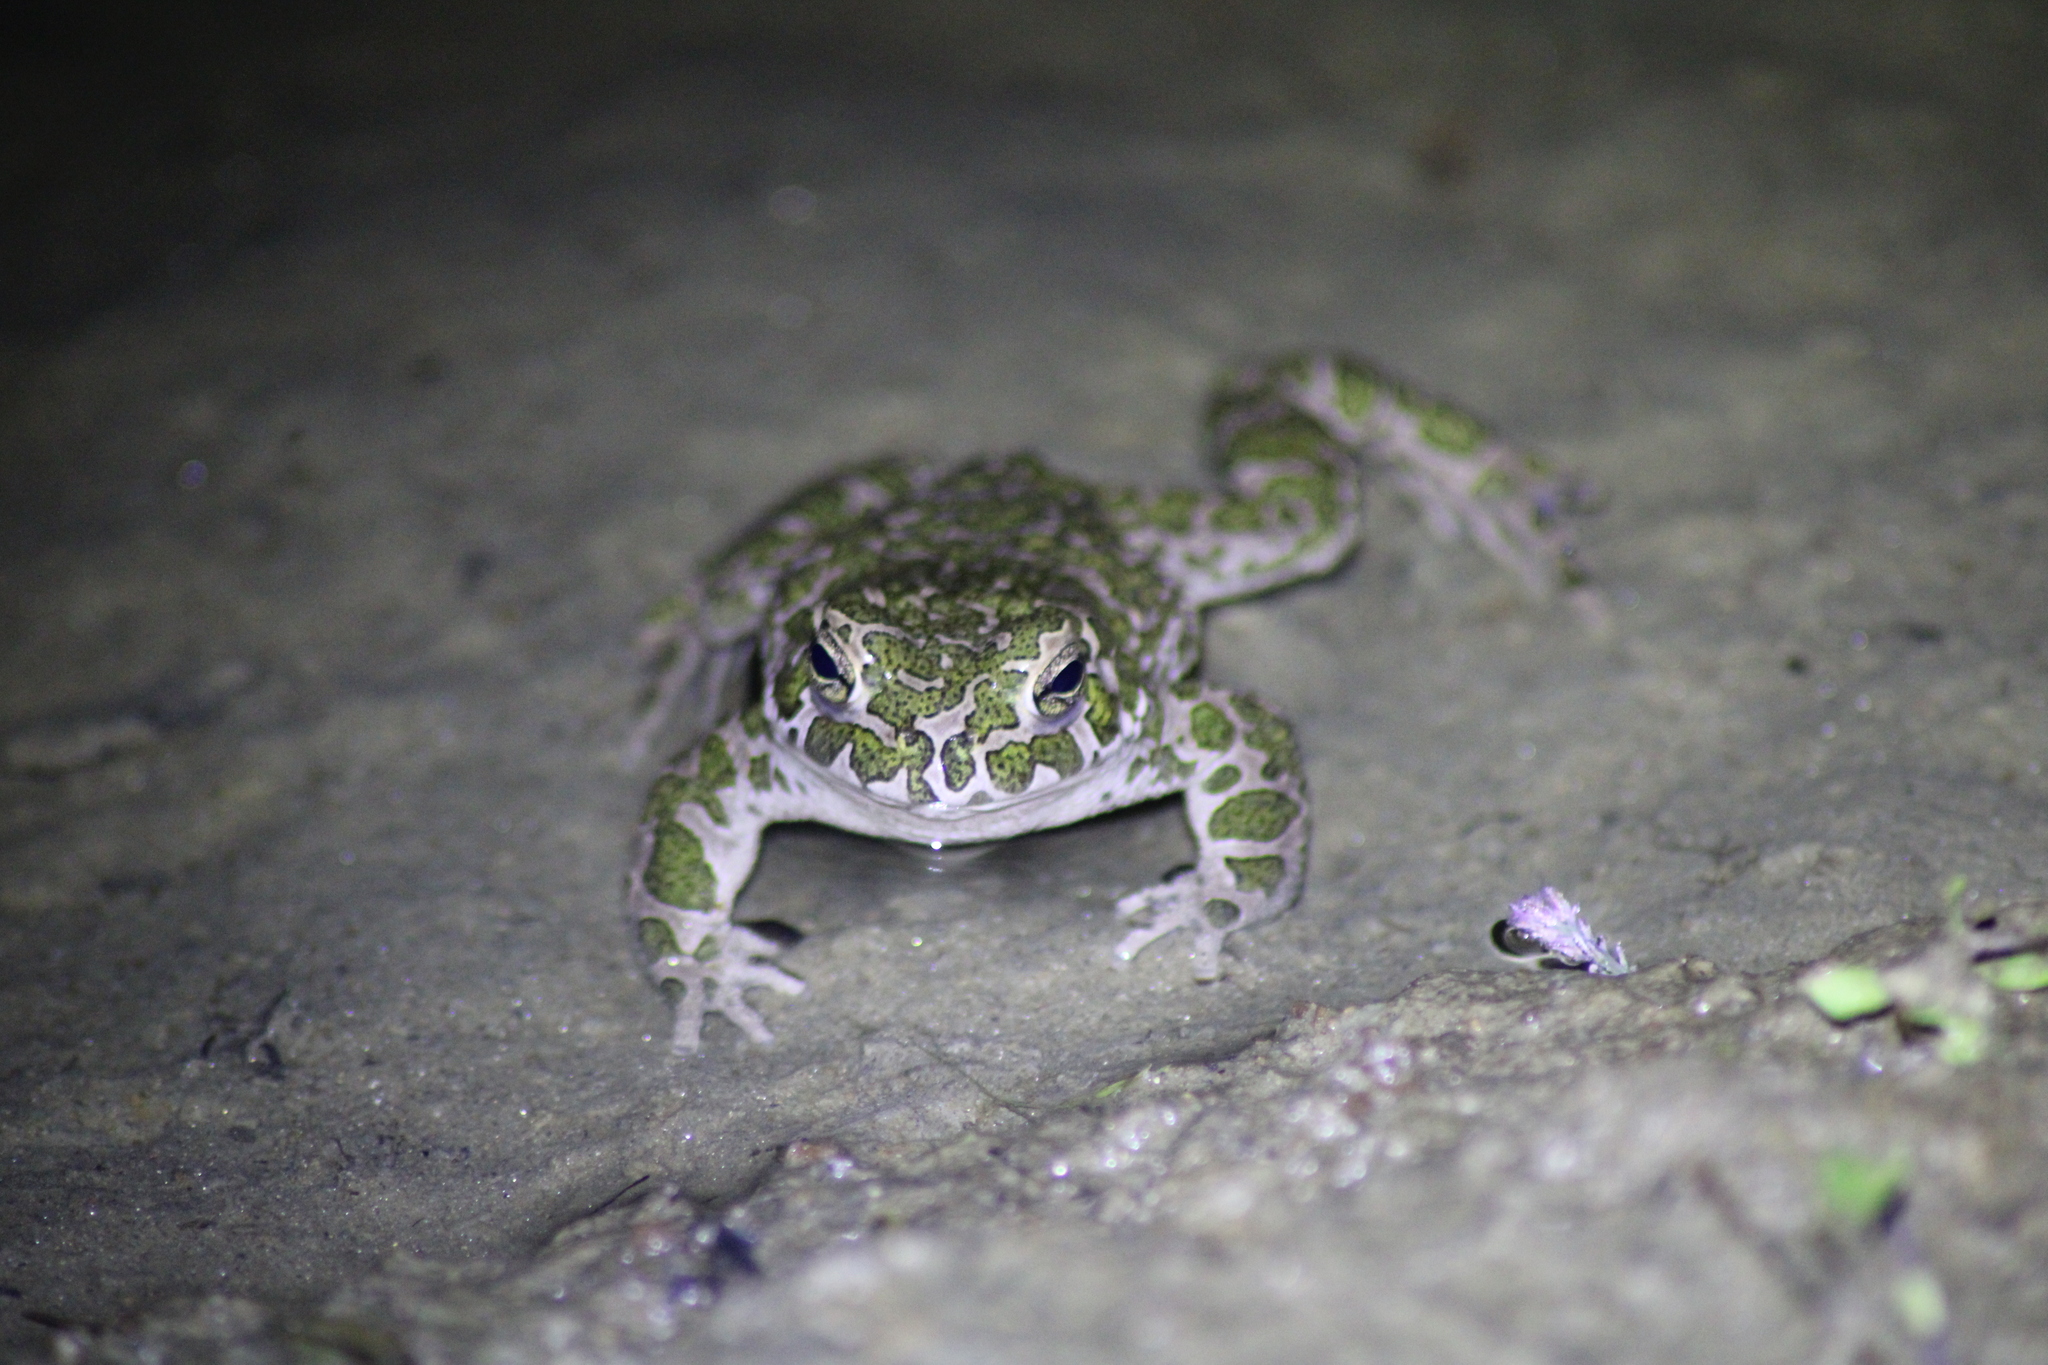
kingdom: Animalia
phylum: Chordata
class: Amphibia
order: Anura
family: Bufonidae
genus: Bufotes
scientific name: Bufotes viridis
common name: European green toad
